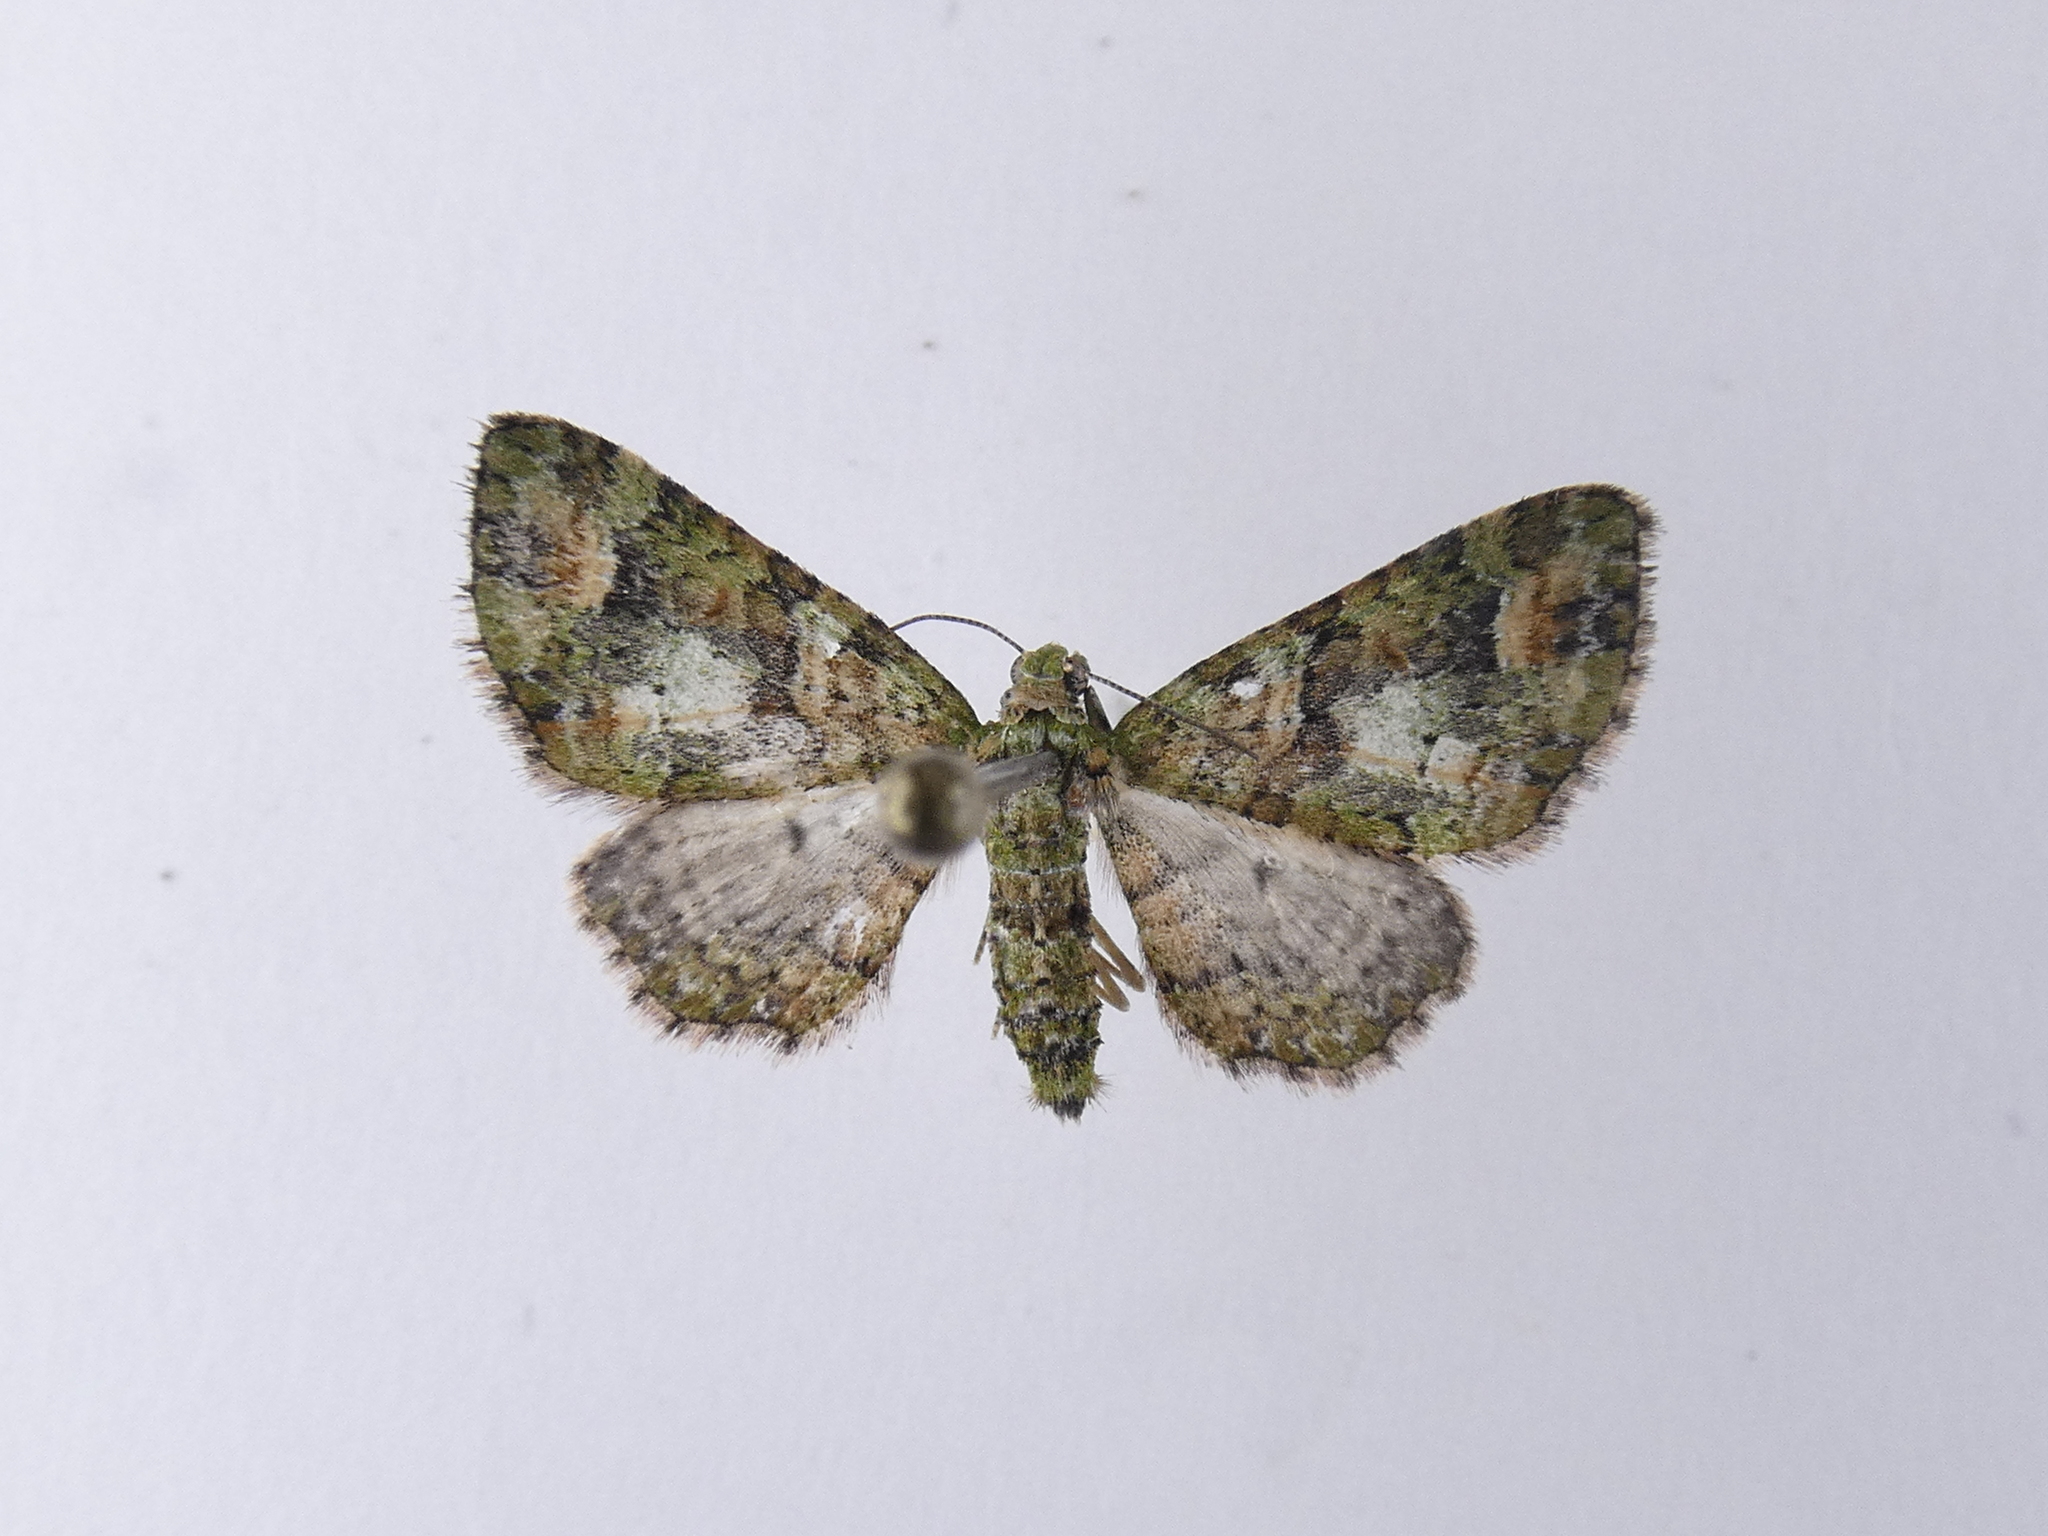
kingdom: Animalia
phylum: Arthropoda
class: Insecta
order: Lepidoptera
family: Geometridae
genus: Idaea
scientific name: Idaea mutanda
